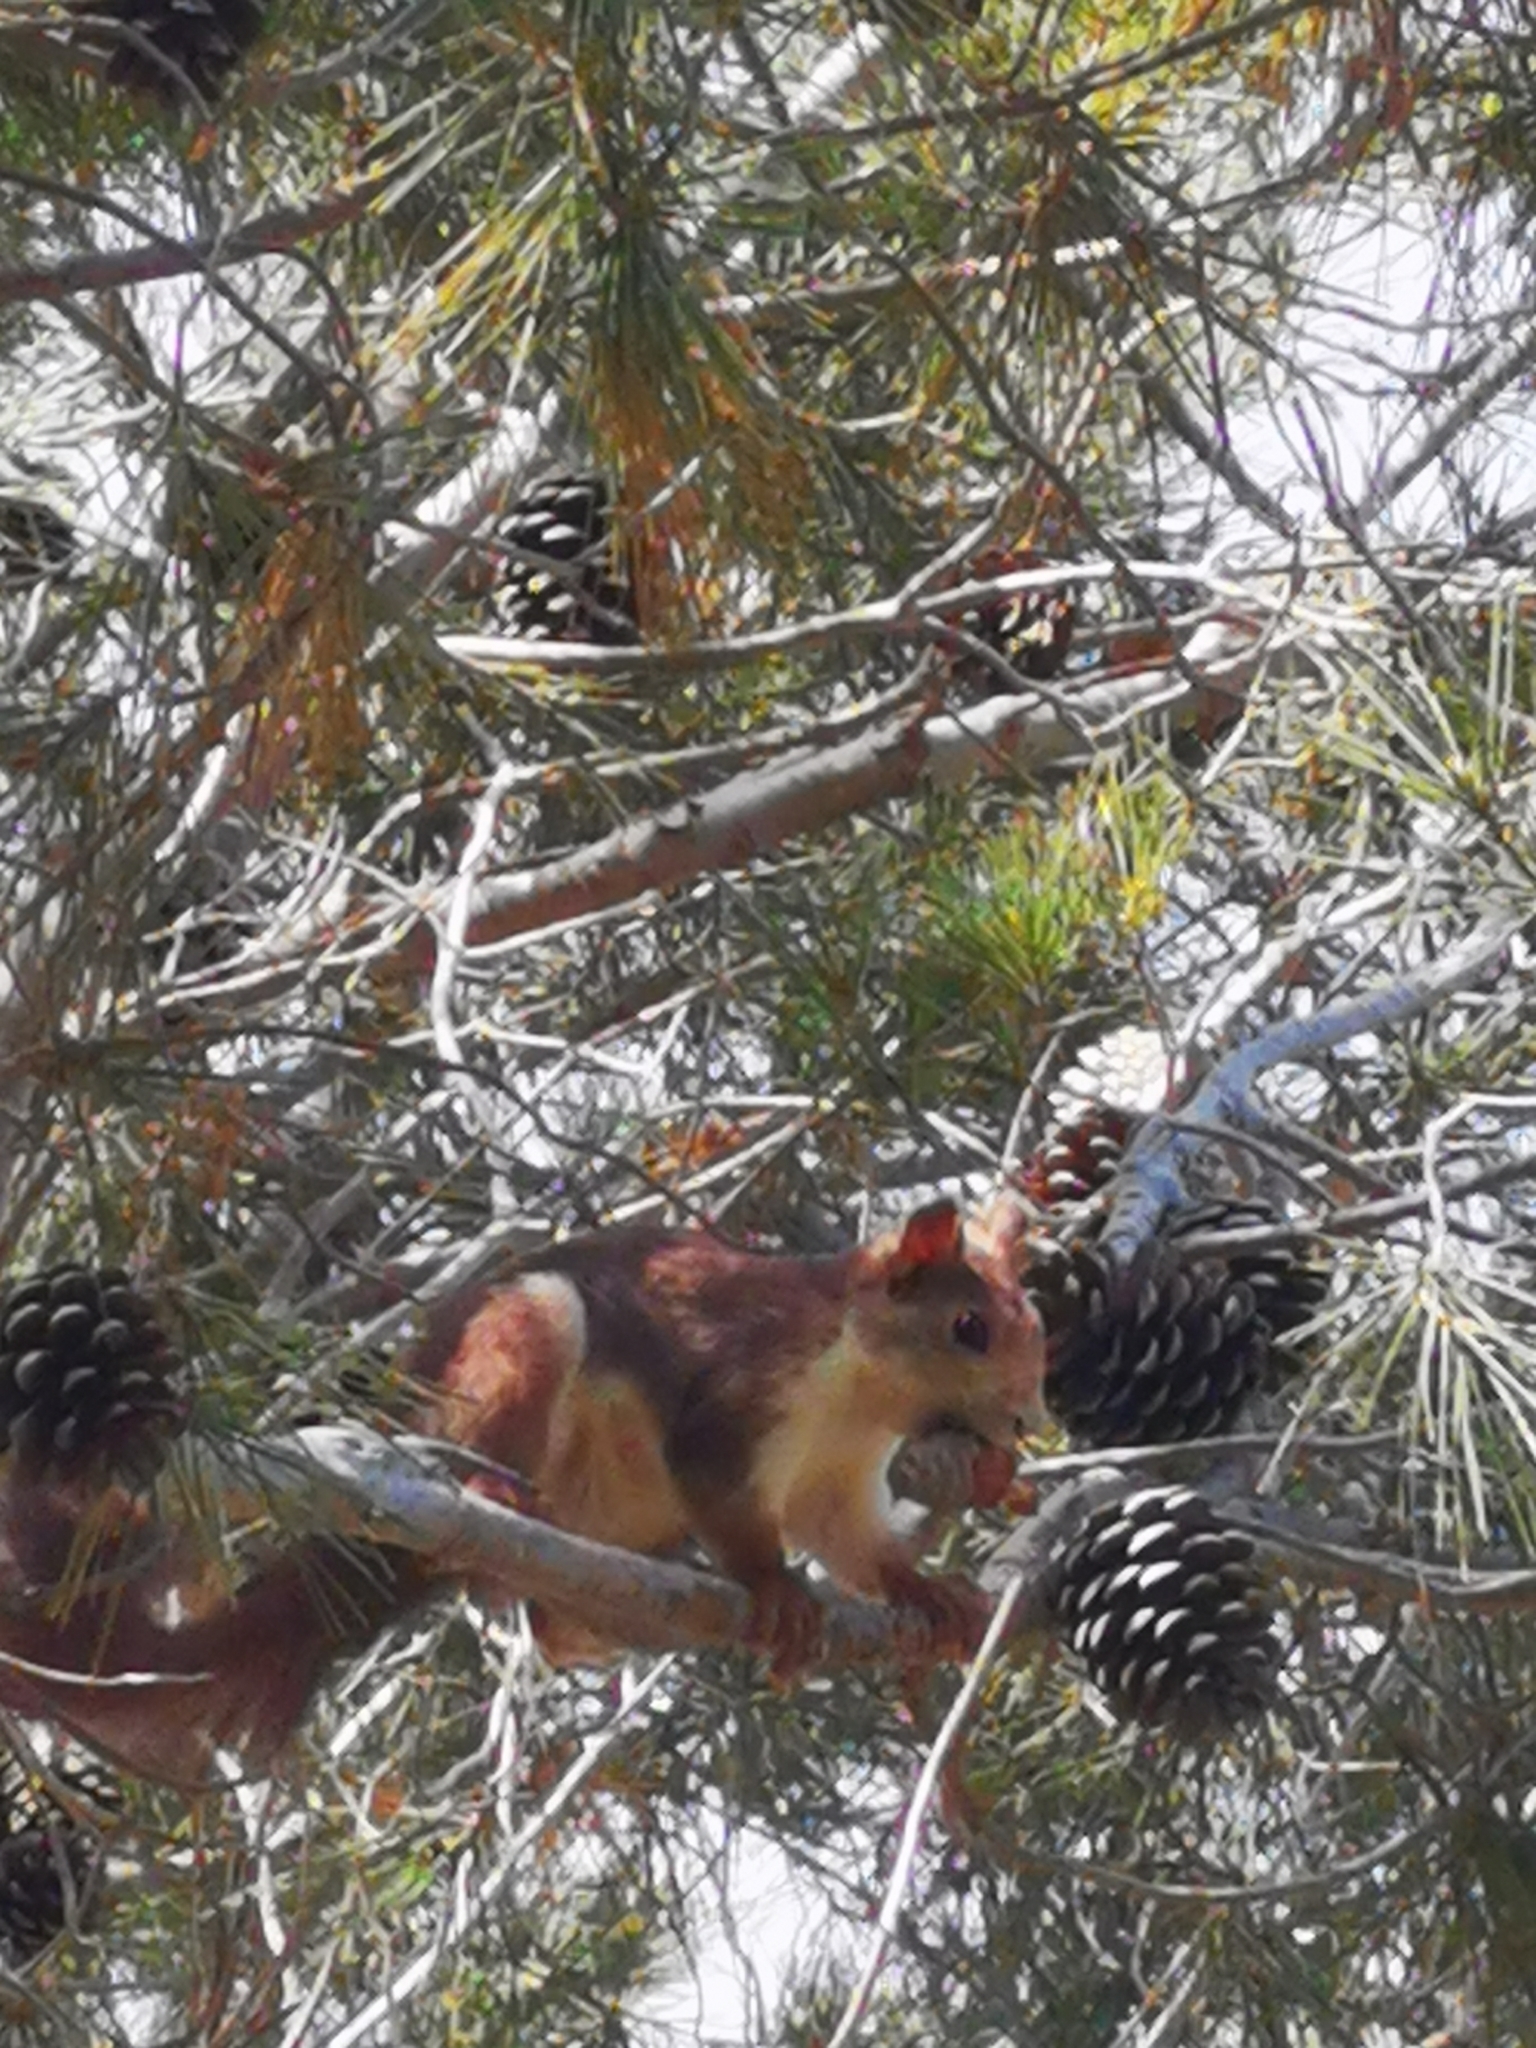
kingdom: Animalia
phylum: Chordata
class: Mammalia
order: Rodentia
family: Sciuridae
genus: Sciurus
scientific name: Sciurus vulgaris
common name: Eurasian red squirrel
